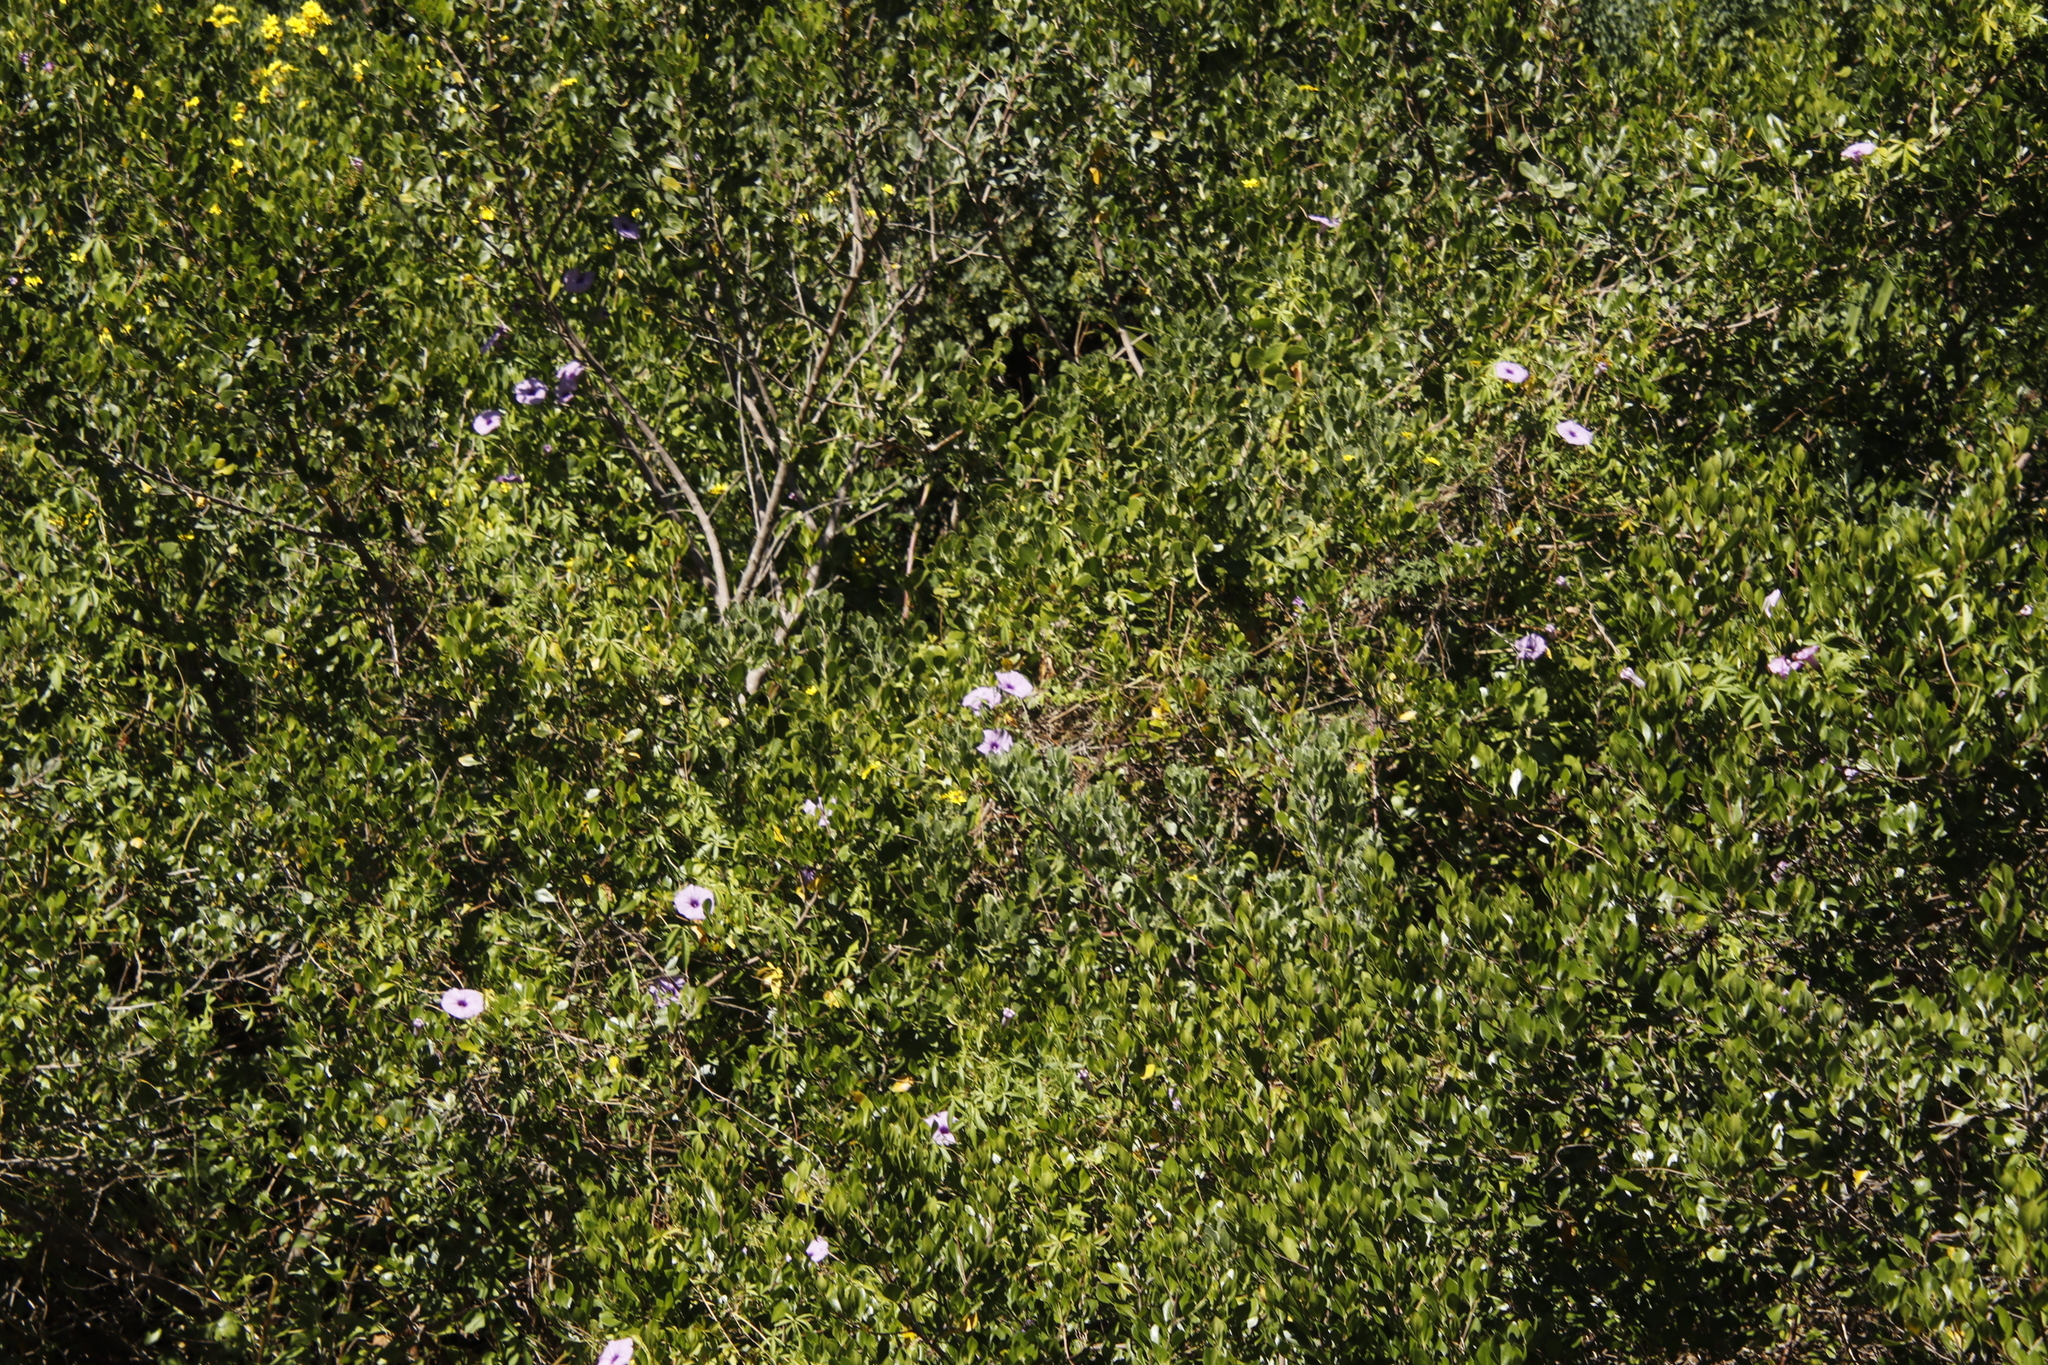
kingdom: Plantae
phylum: Tracheophyta
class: Magnoliopsida
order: Solanales
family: Convolvulaceae
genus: Ipomoea
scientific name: Ipomoea cairica
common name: Mile a minute vine
